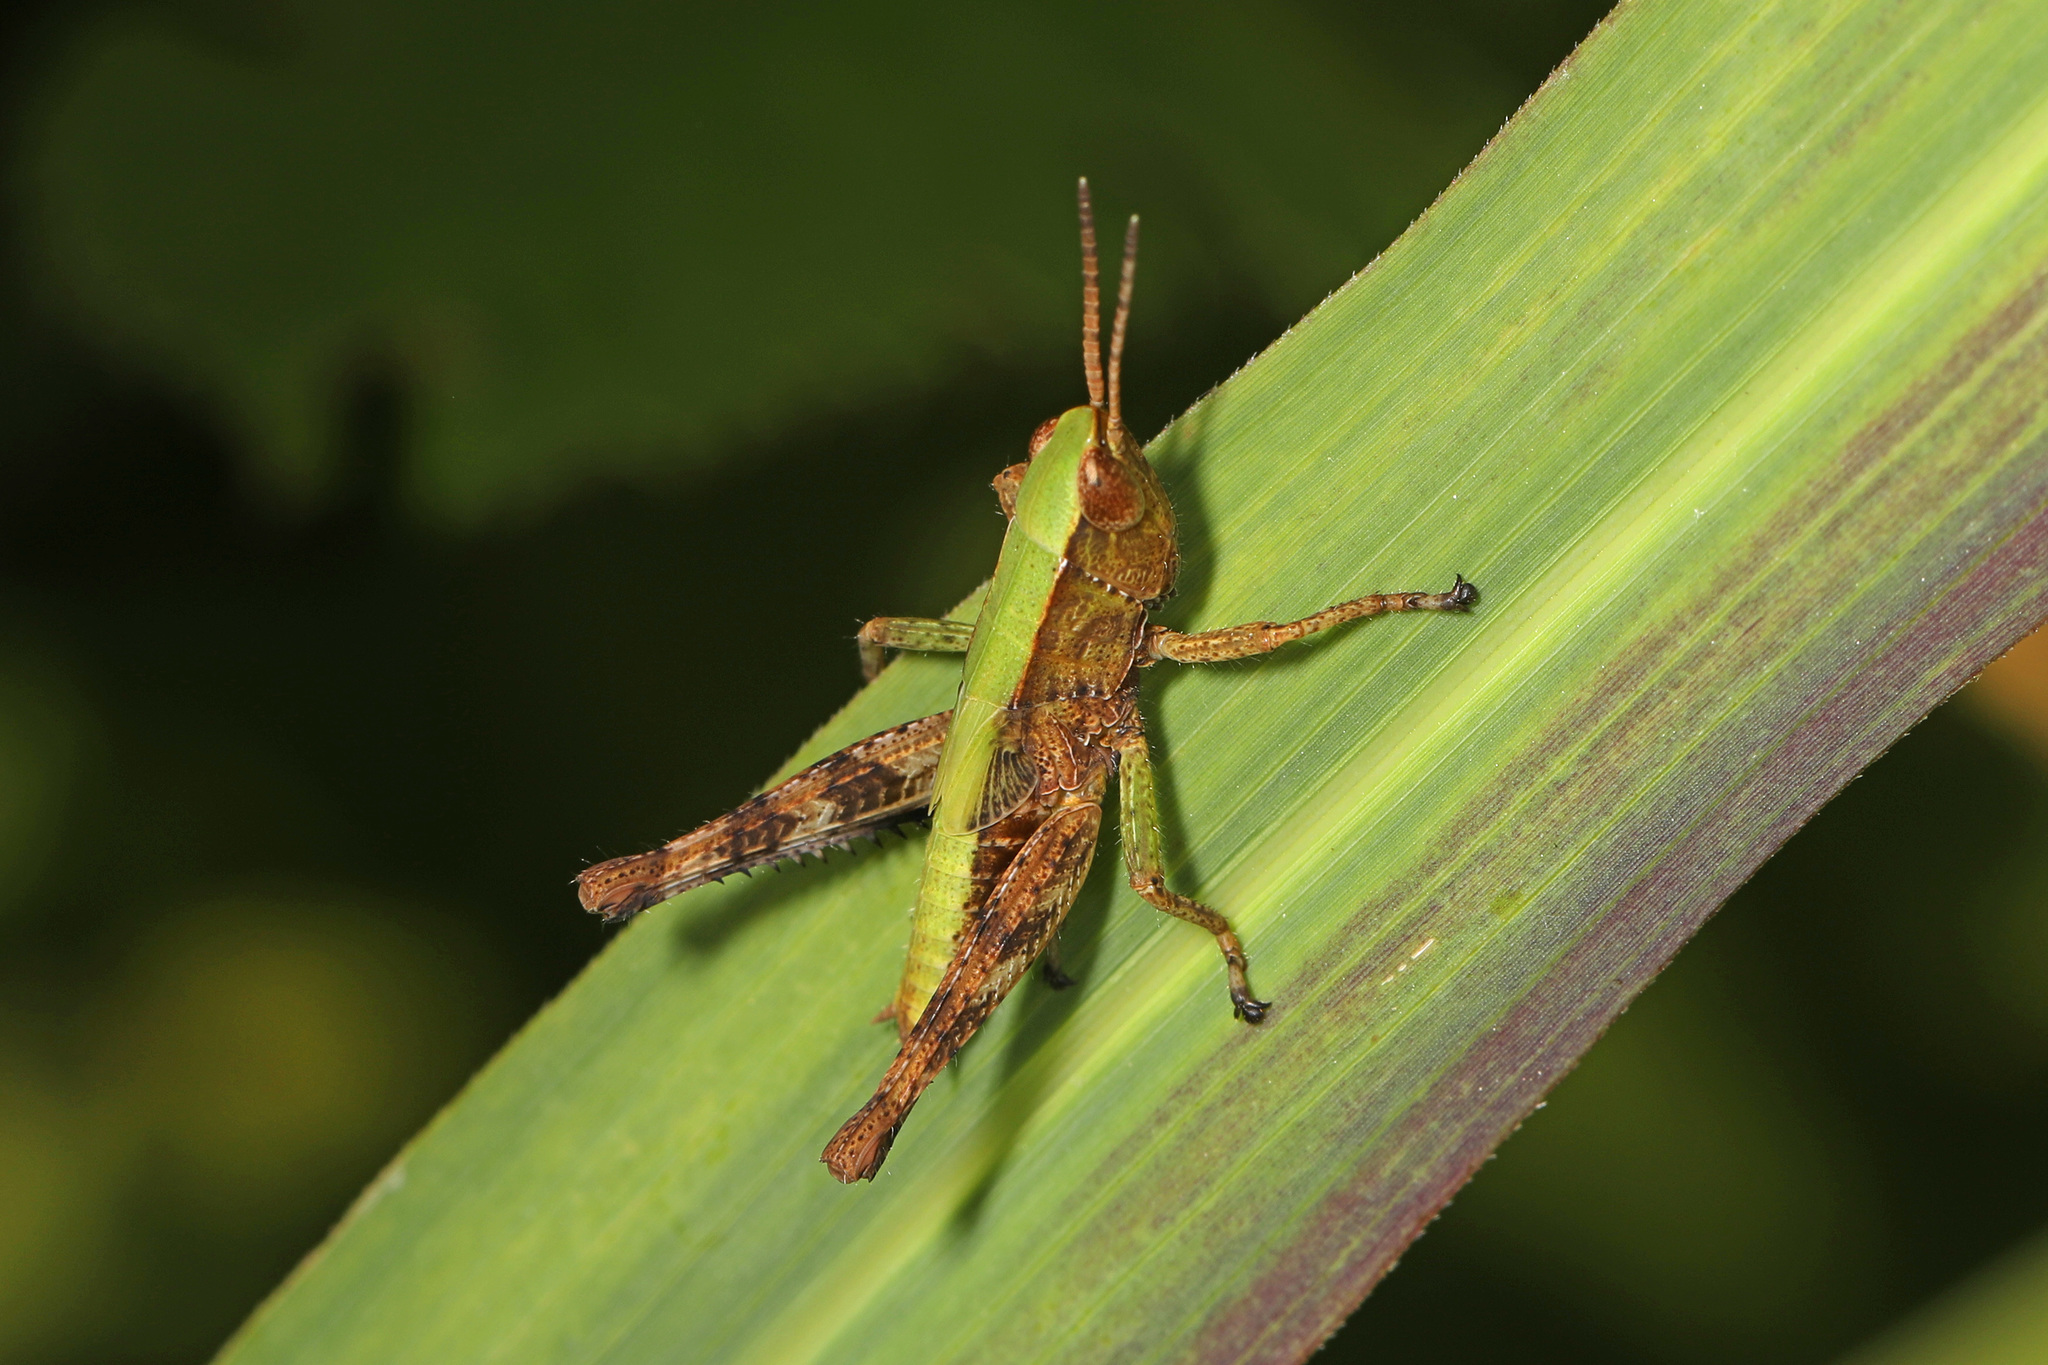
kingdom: Animalia
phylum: Arthropoda
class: Insecta
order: Orthoptera
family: Acrididae
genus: Dichromorpha
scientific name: Dichromorpha viridis
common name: Short-winged green grasshopper
